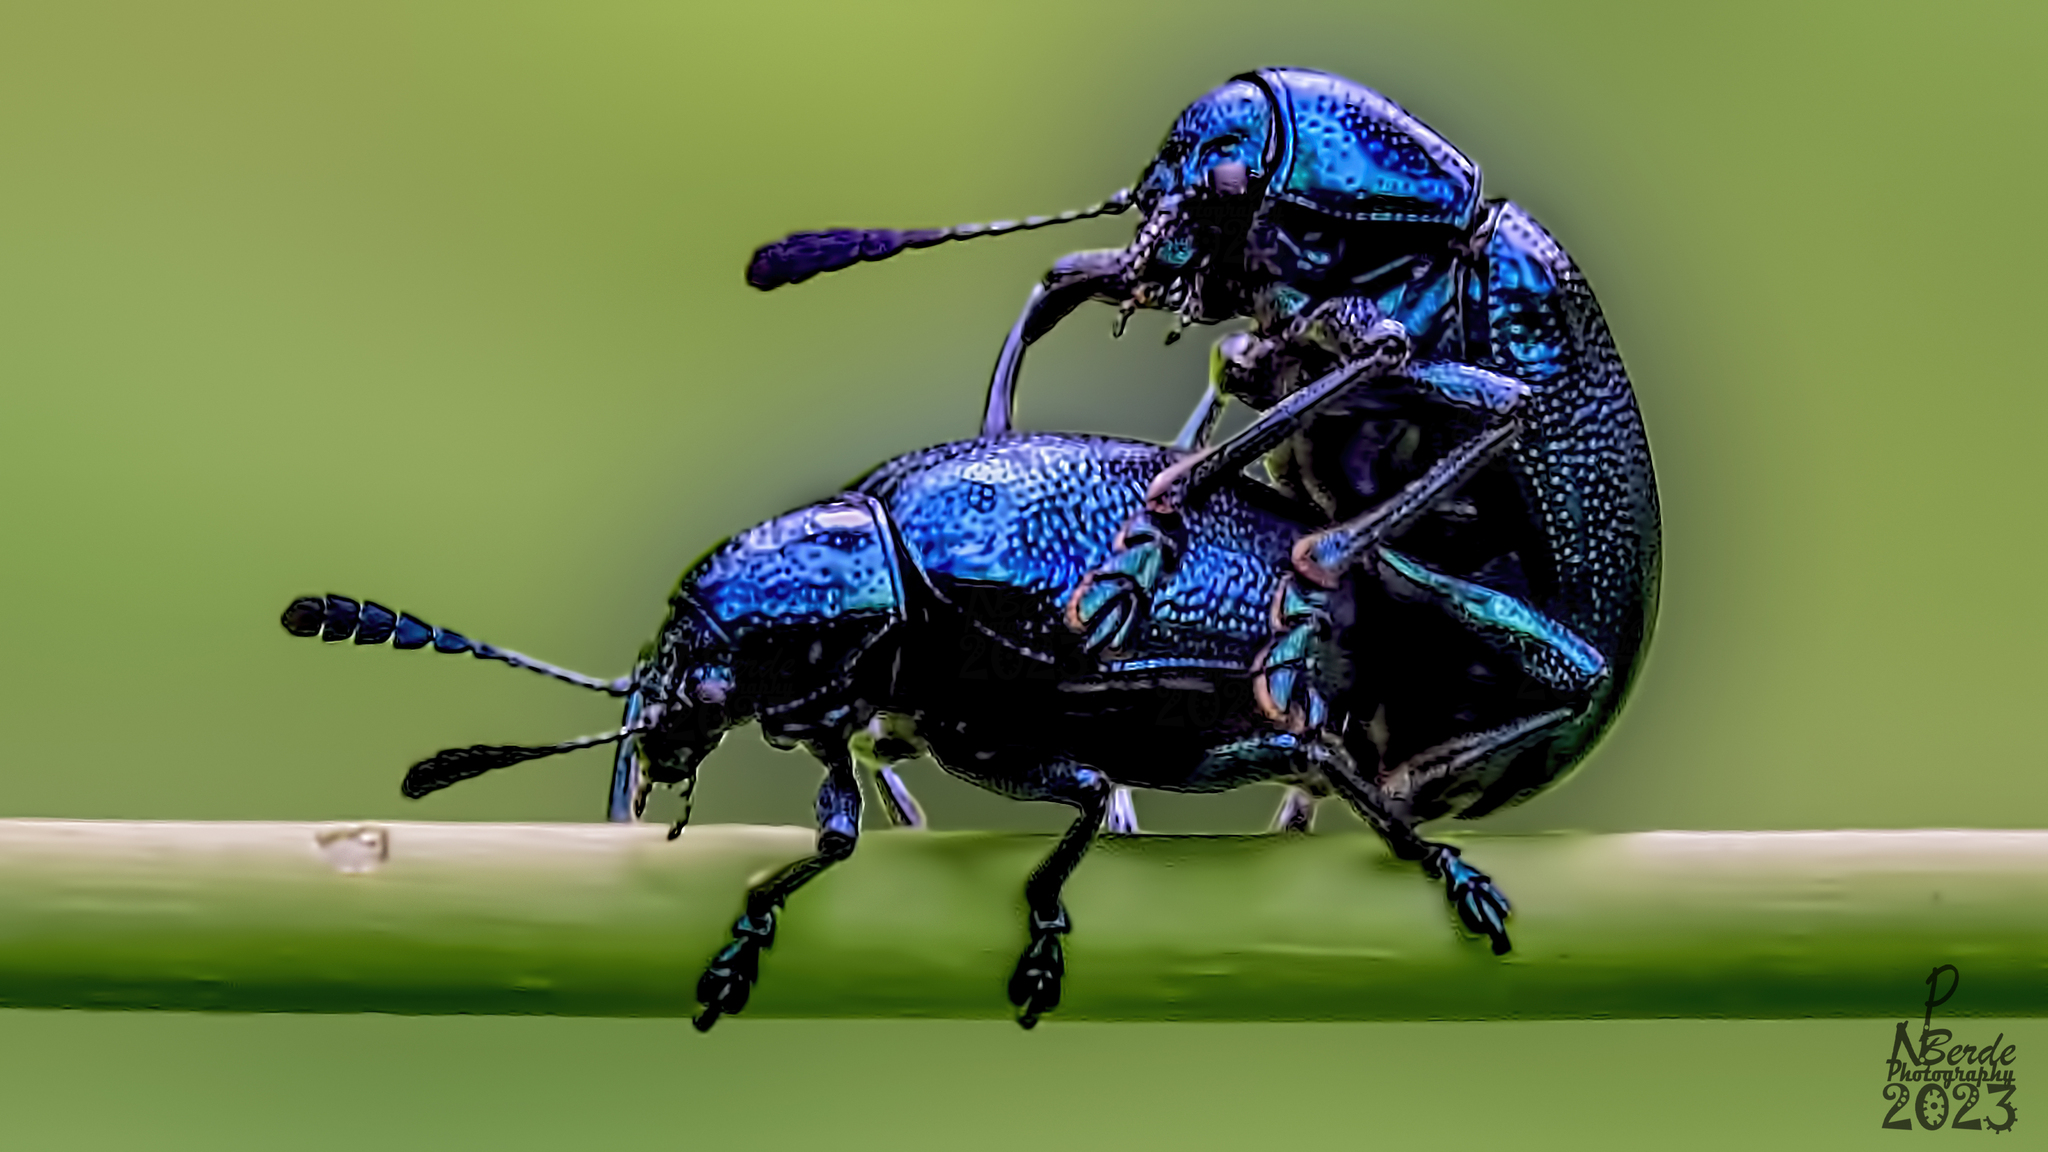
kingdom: Animalia
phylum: Arthropoda
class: Insecta
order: Coleoptera
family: Chrysomelidae
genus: Platycorynus
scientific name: Platycorynus
